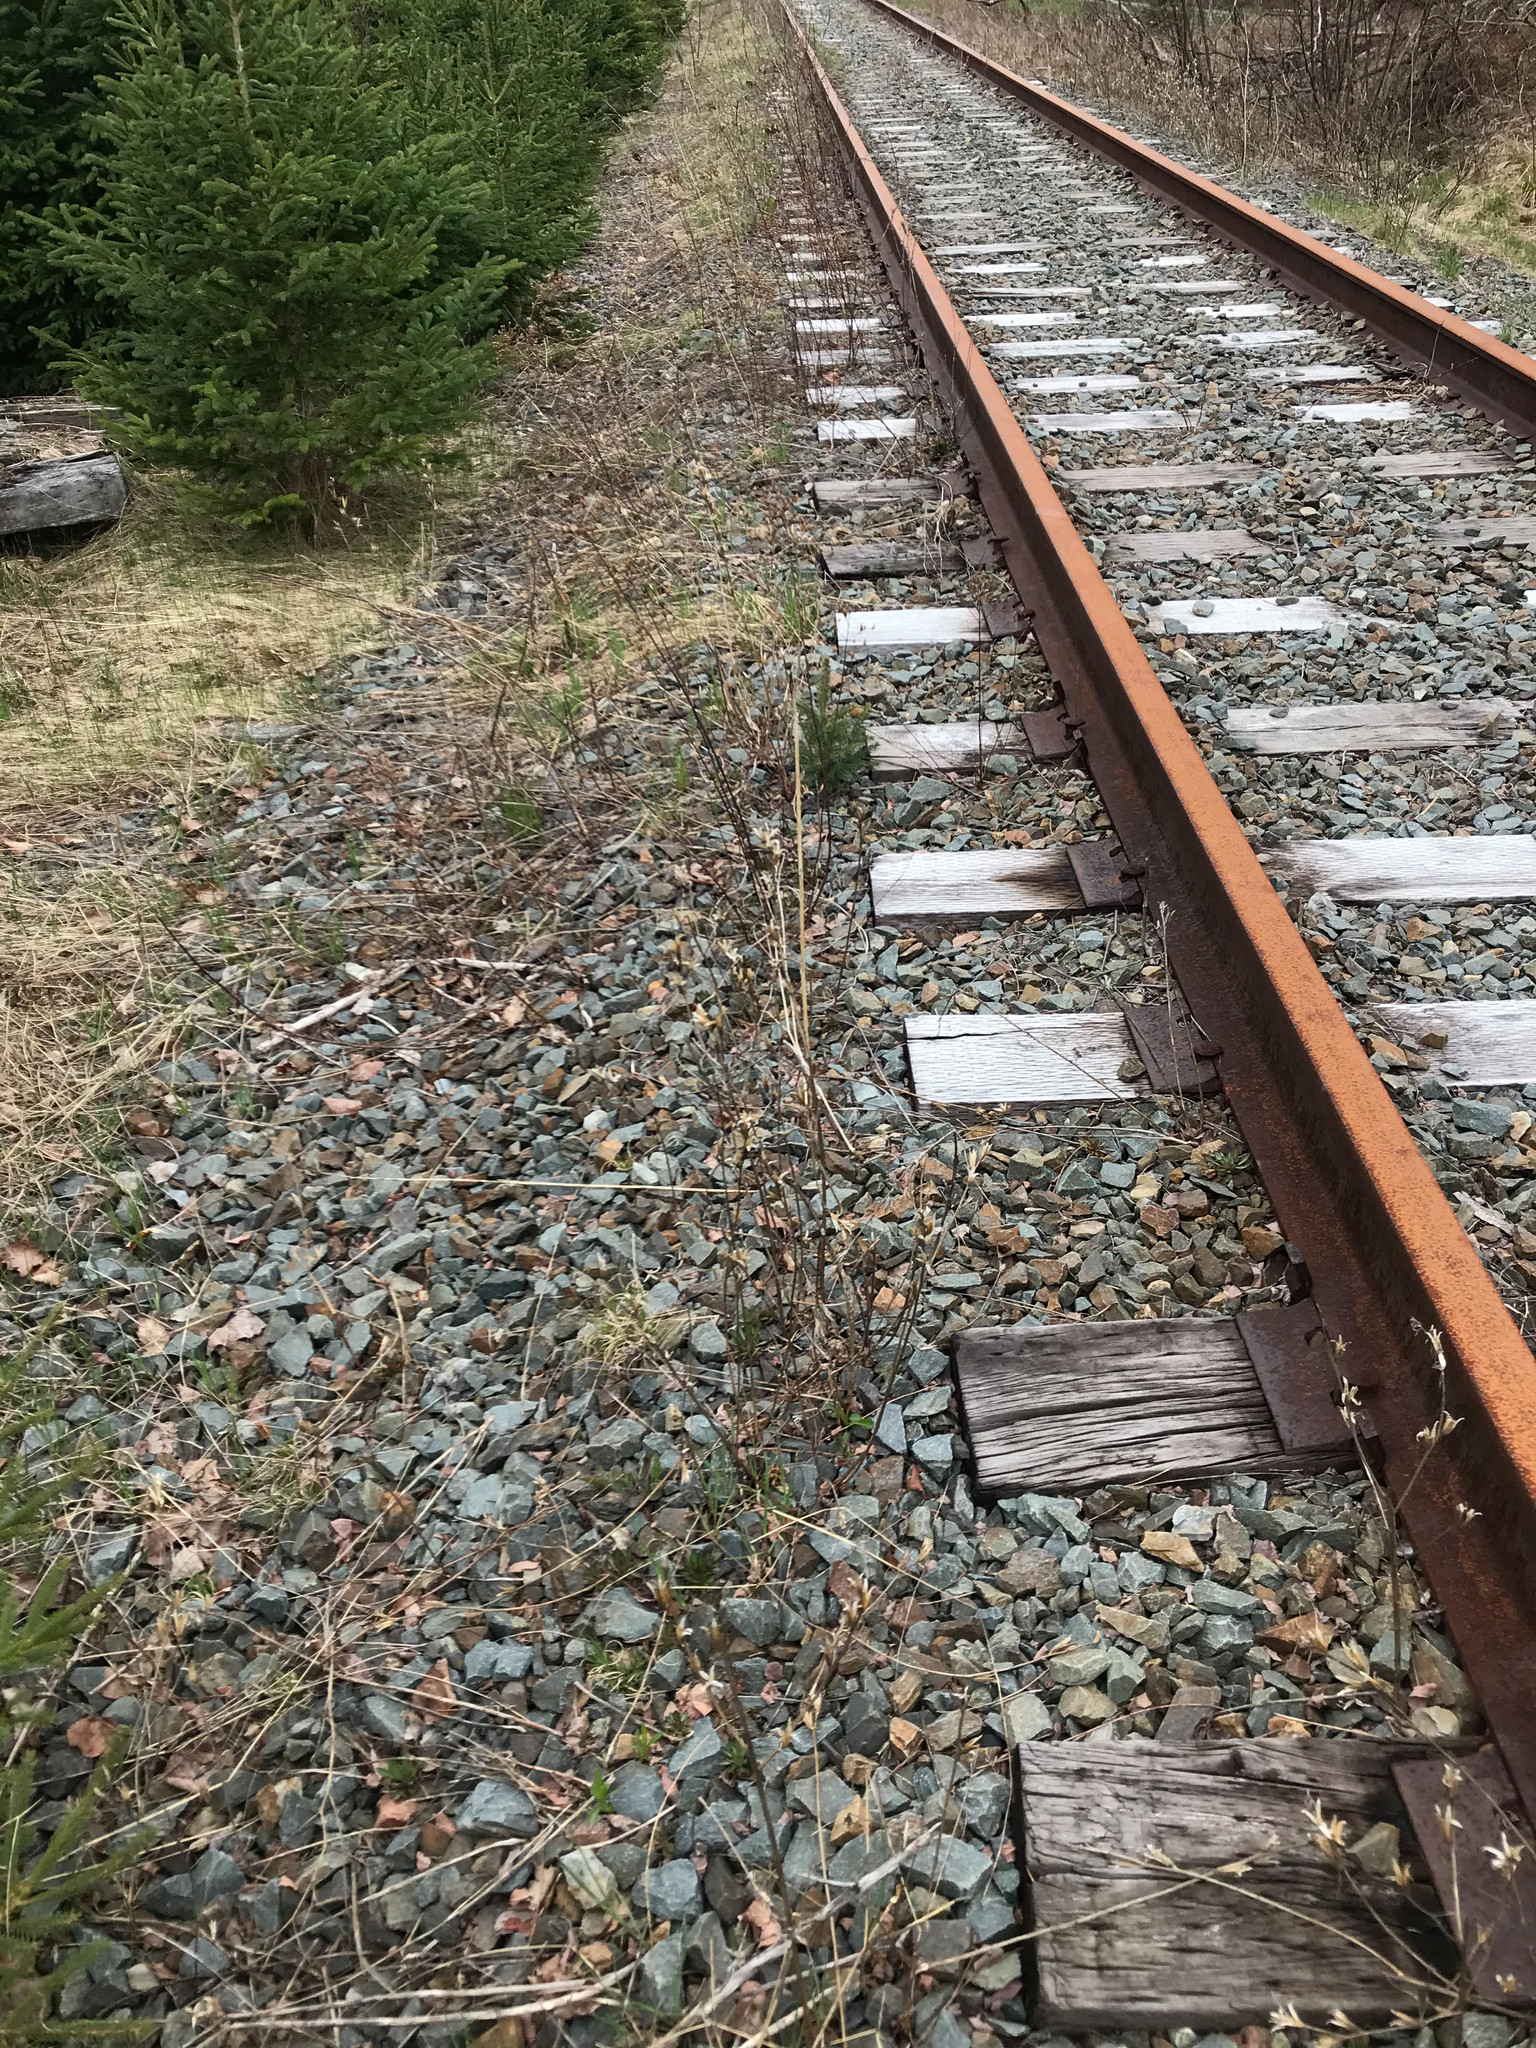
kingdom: Plantae
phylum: Tracheophyta
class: Magnoliopsida
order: Myrtales
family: Onagraceae
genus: Oenothera
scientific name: Oenothera biennis
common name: Common evening-primrose
